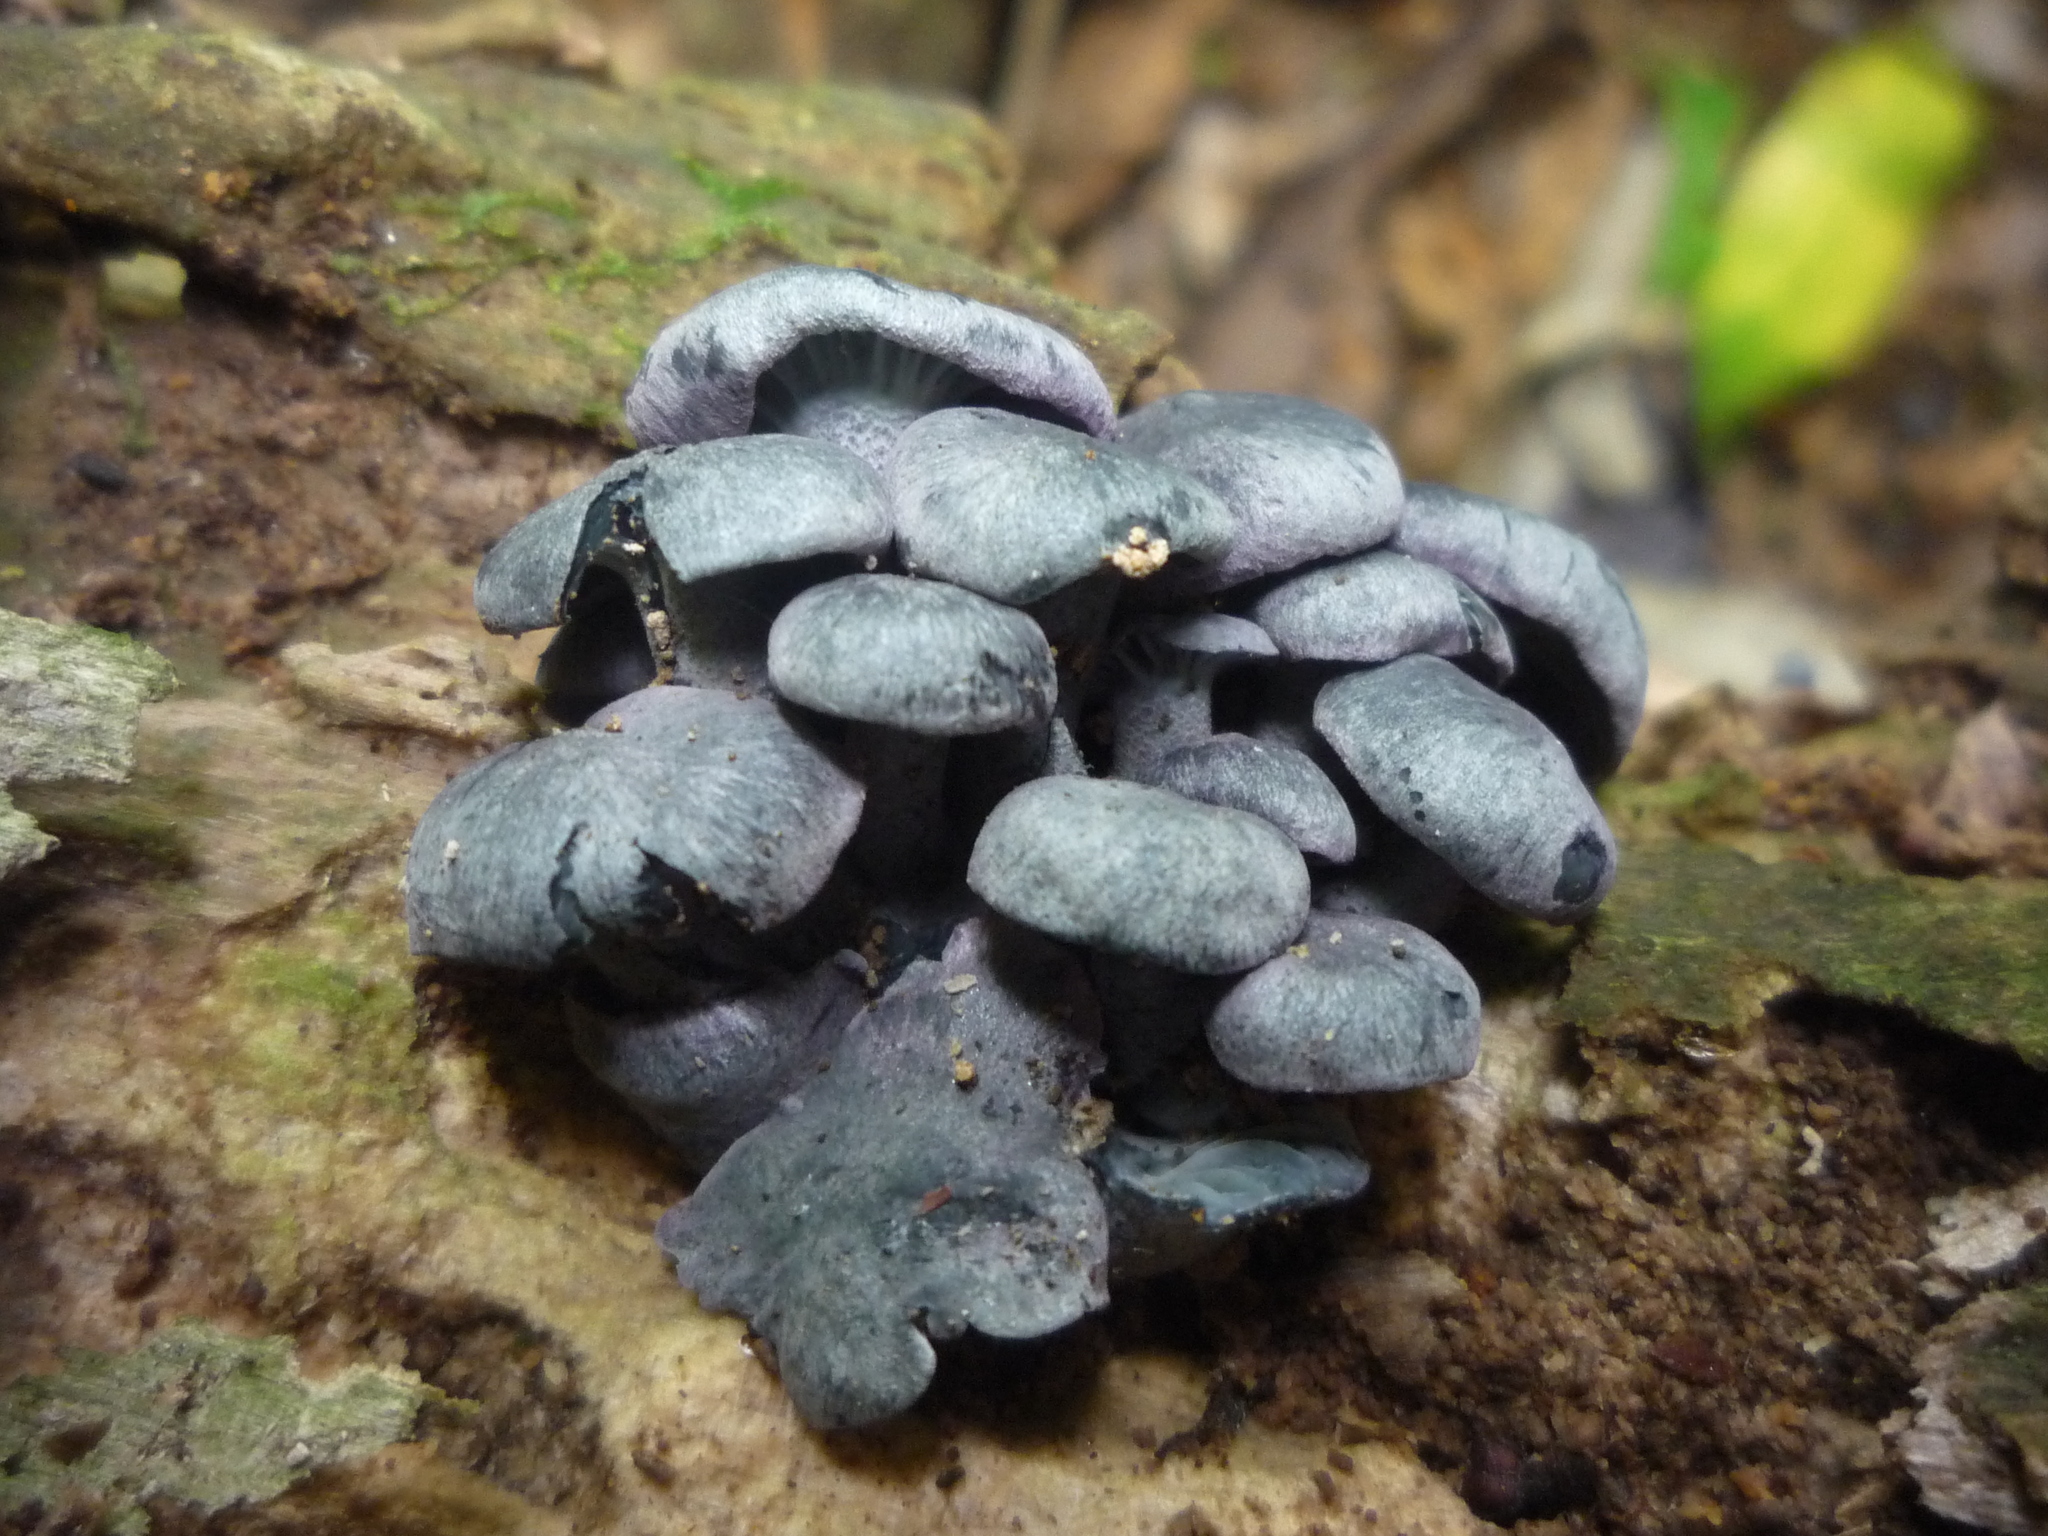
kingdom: Fungi
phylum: Basidiomycota
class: Agaricomycetes
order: Agaricales
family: Marasmiaceae
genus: Gerronema
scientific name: Gerronema waikanaense
